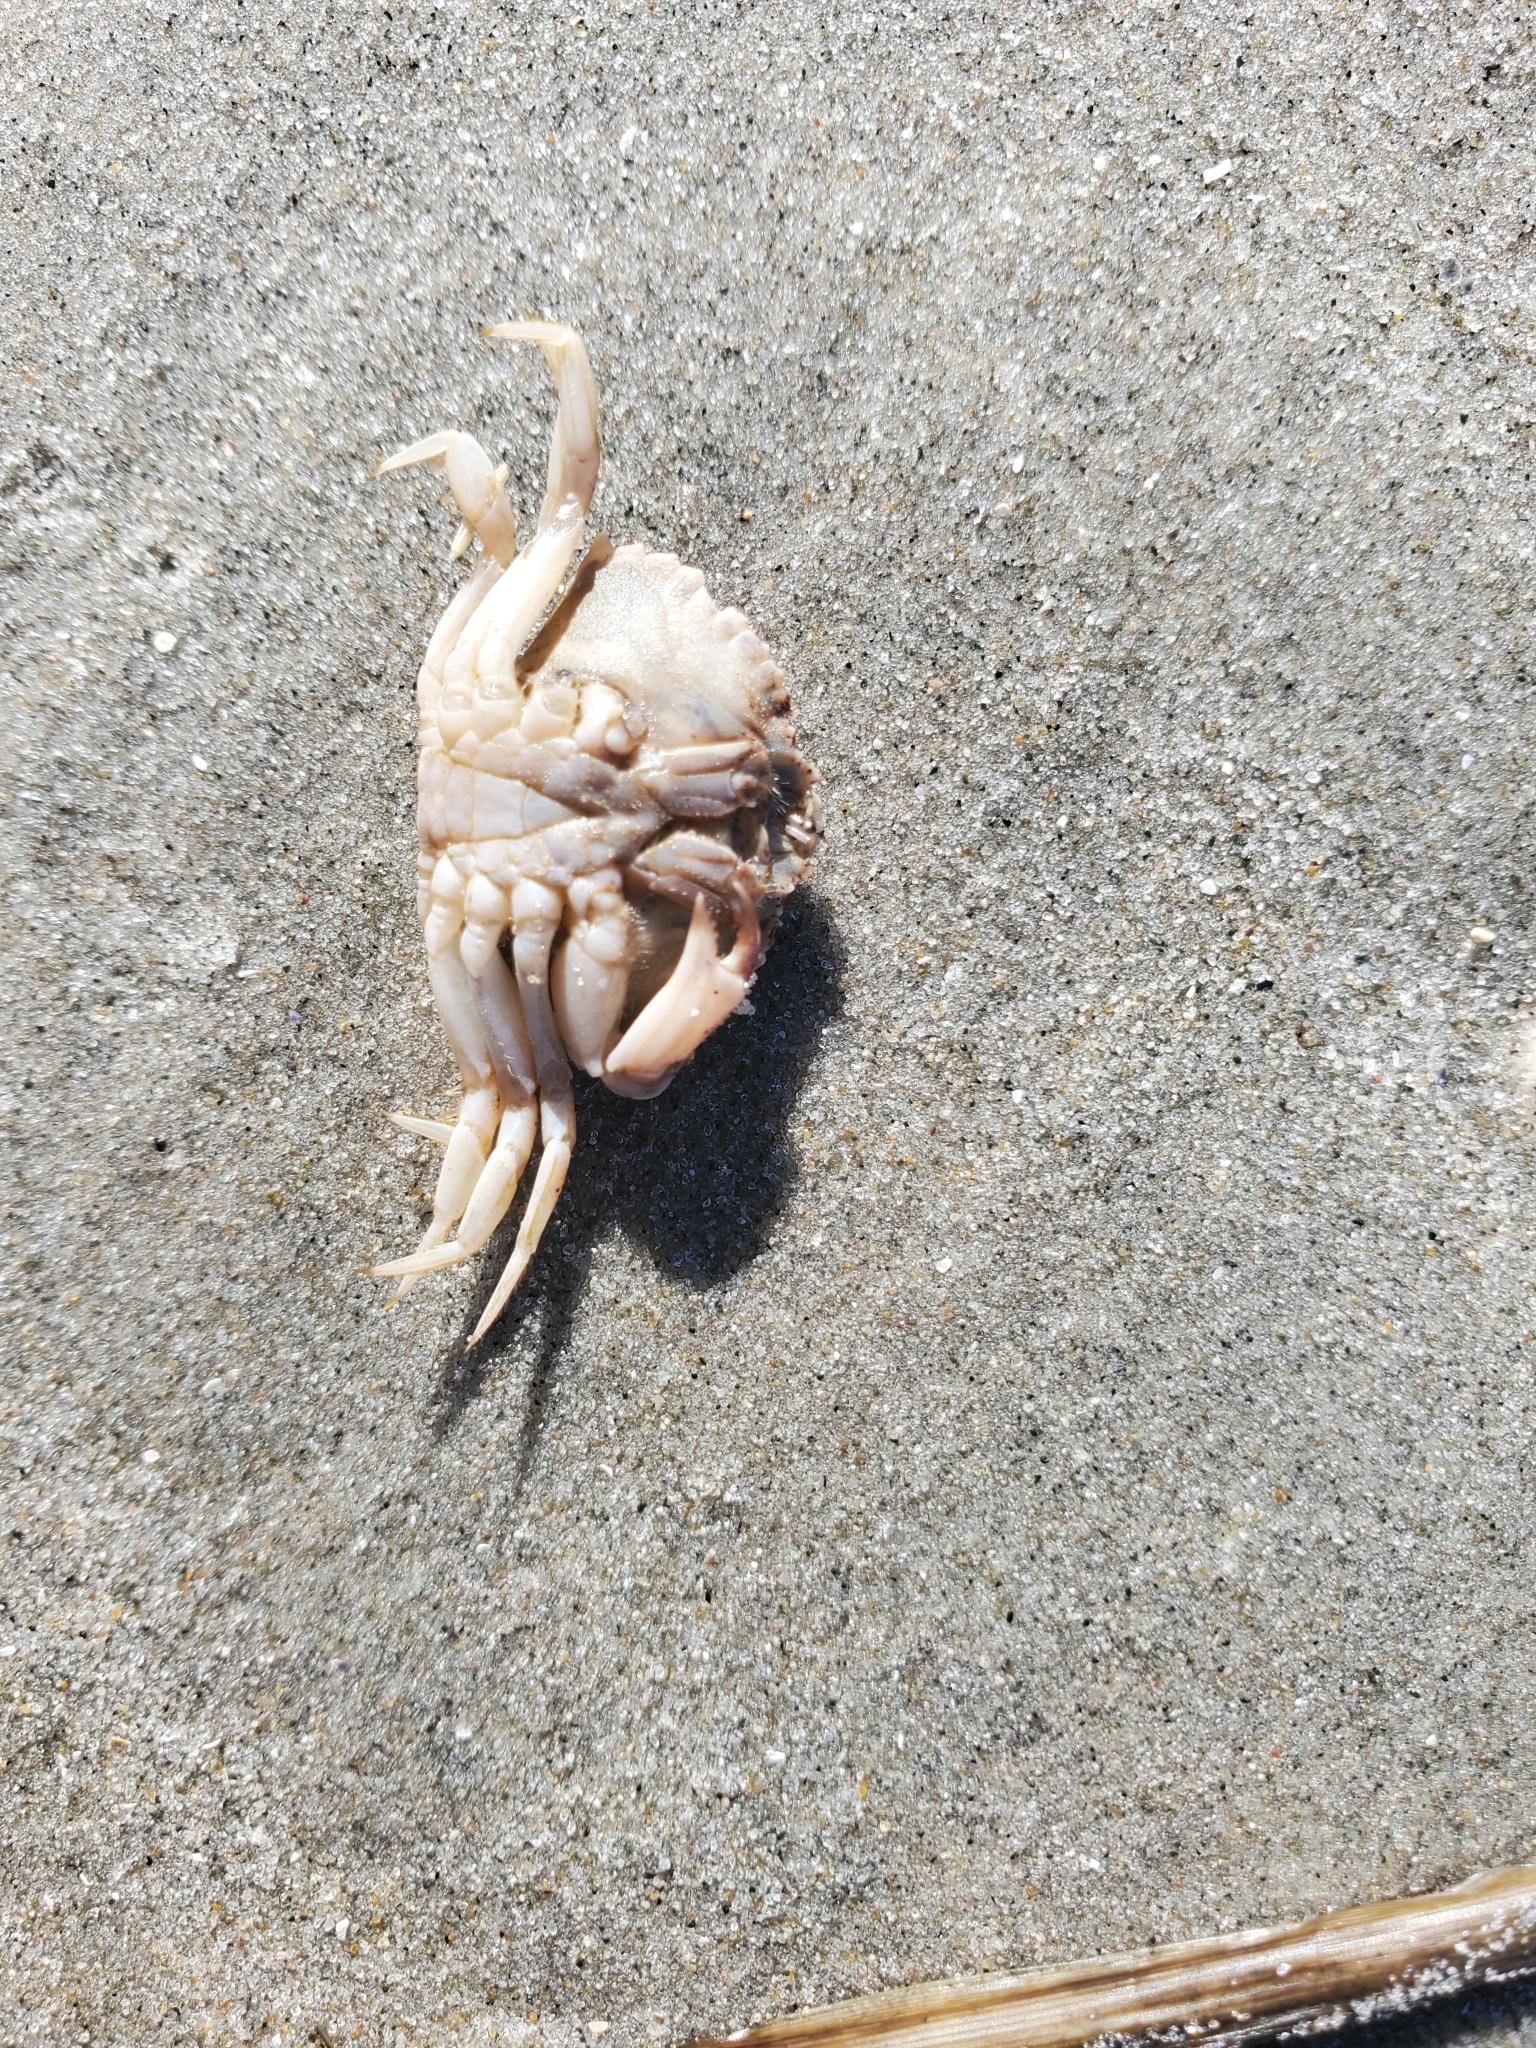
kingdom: Animalia
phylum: Arthropoda
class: Malacostraca
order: Decapoda
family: Cancridae
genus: Cancer
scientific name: Cancer irroratus
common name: Atlantic rock crab
